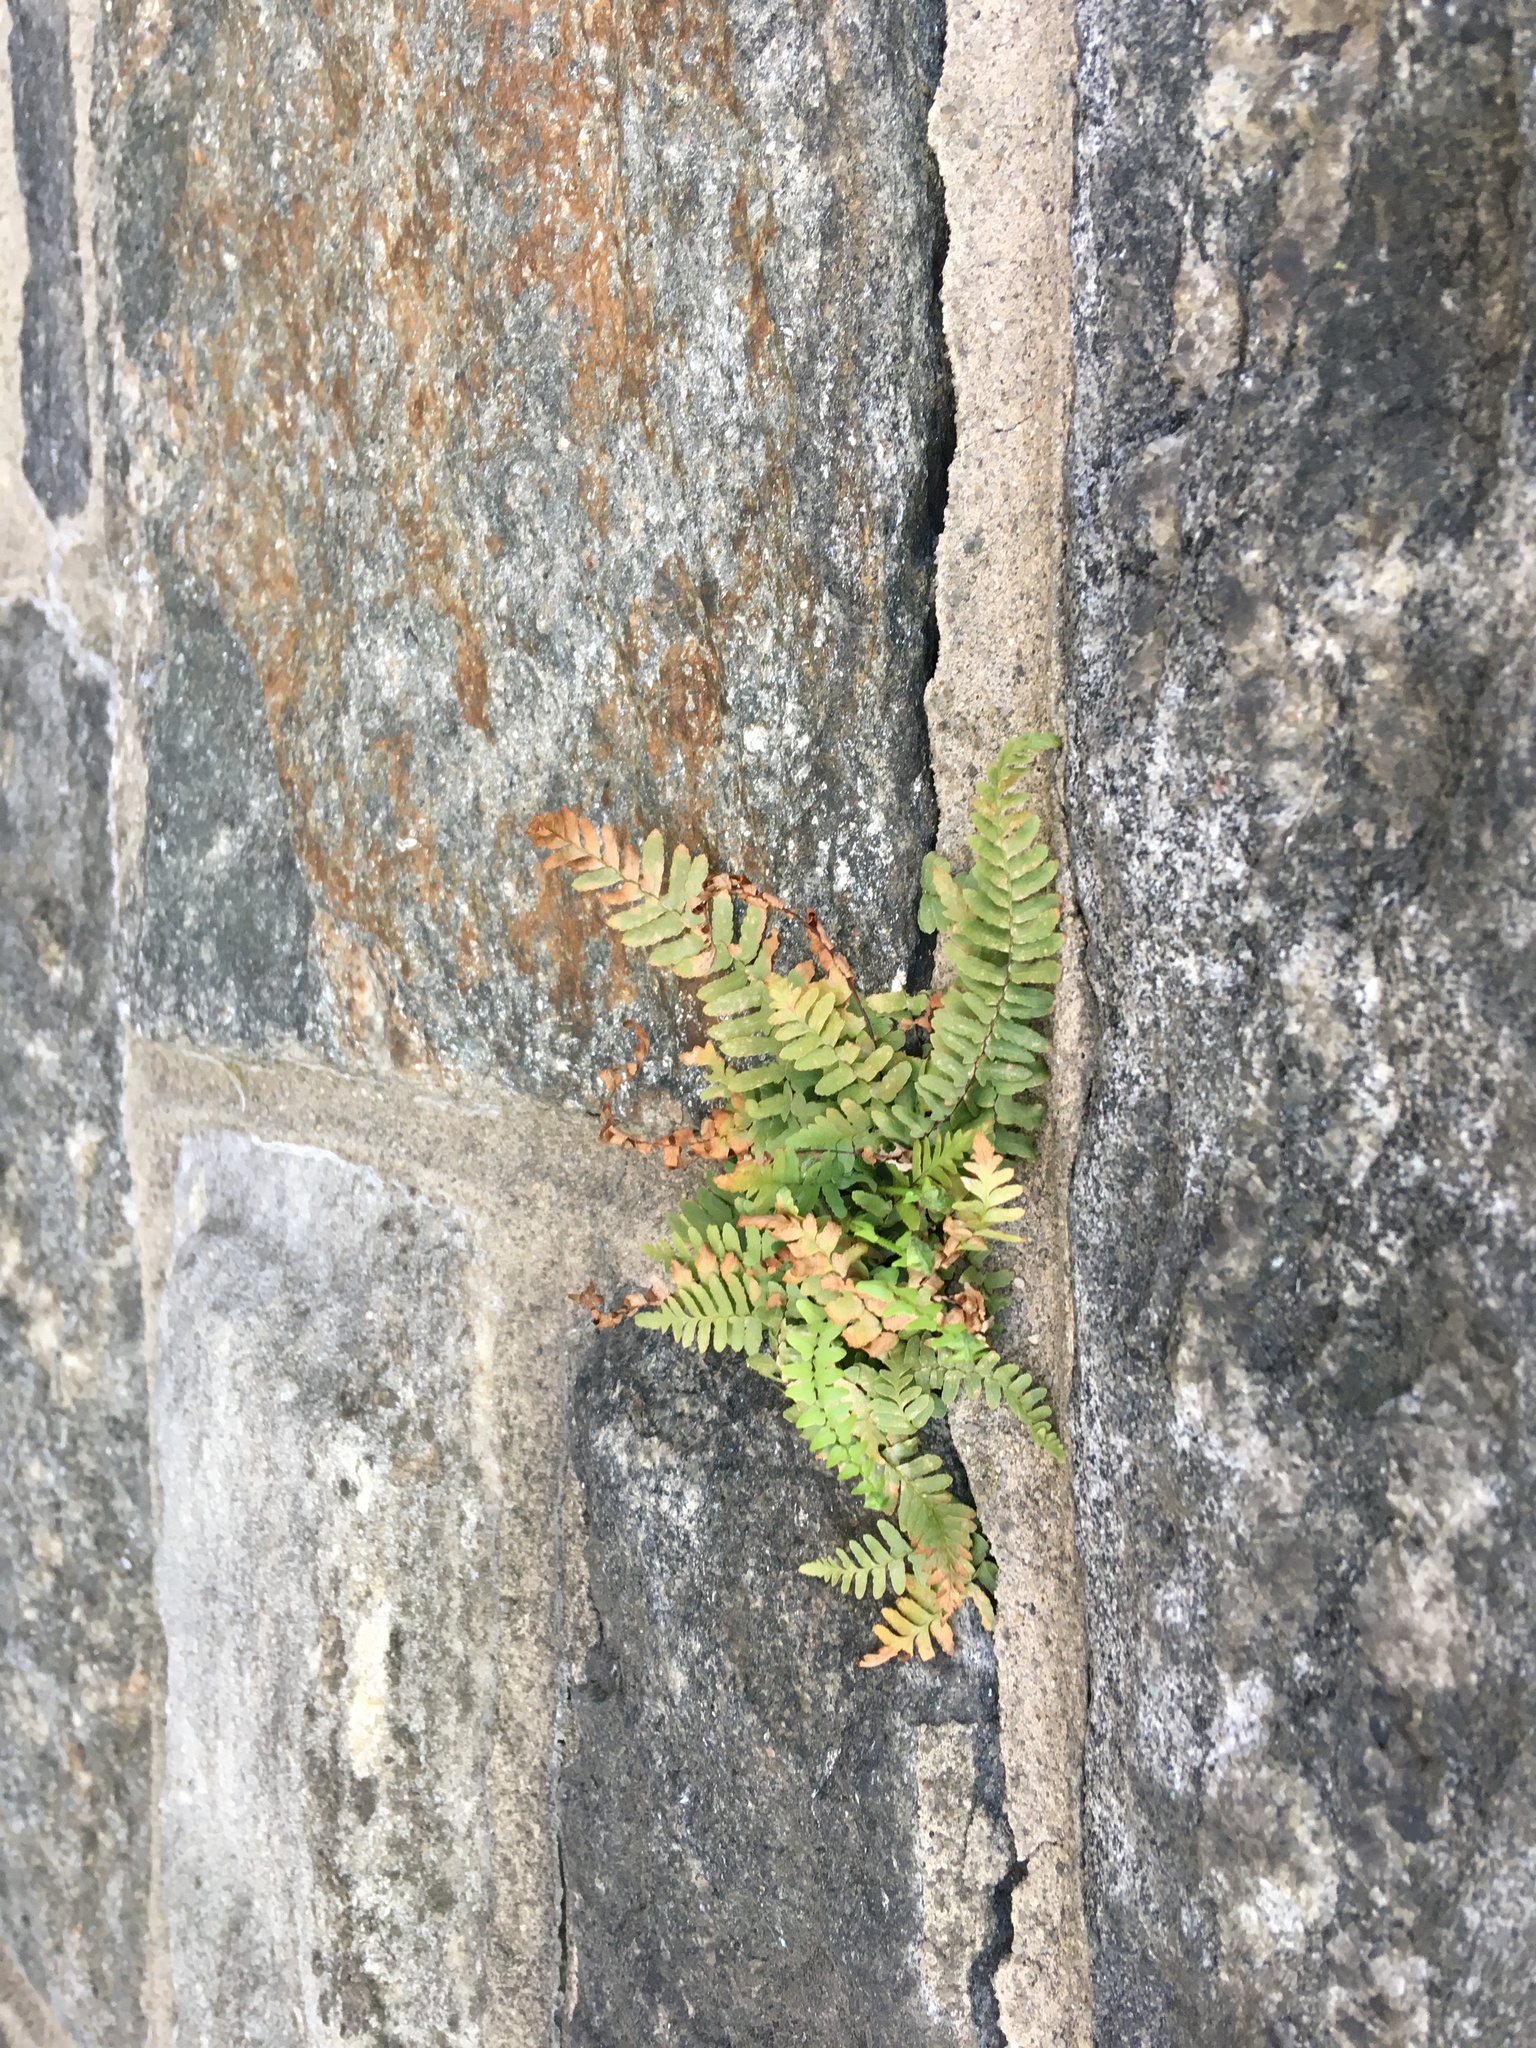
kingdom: Plantae
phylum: Tracheophyta
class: Polypodiopsida
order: Polypodiales
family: Aspleniaceae
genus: Asplenium
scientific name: Asplenium platyneuron
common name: Ebony spleenwort
